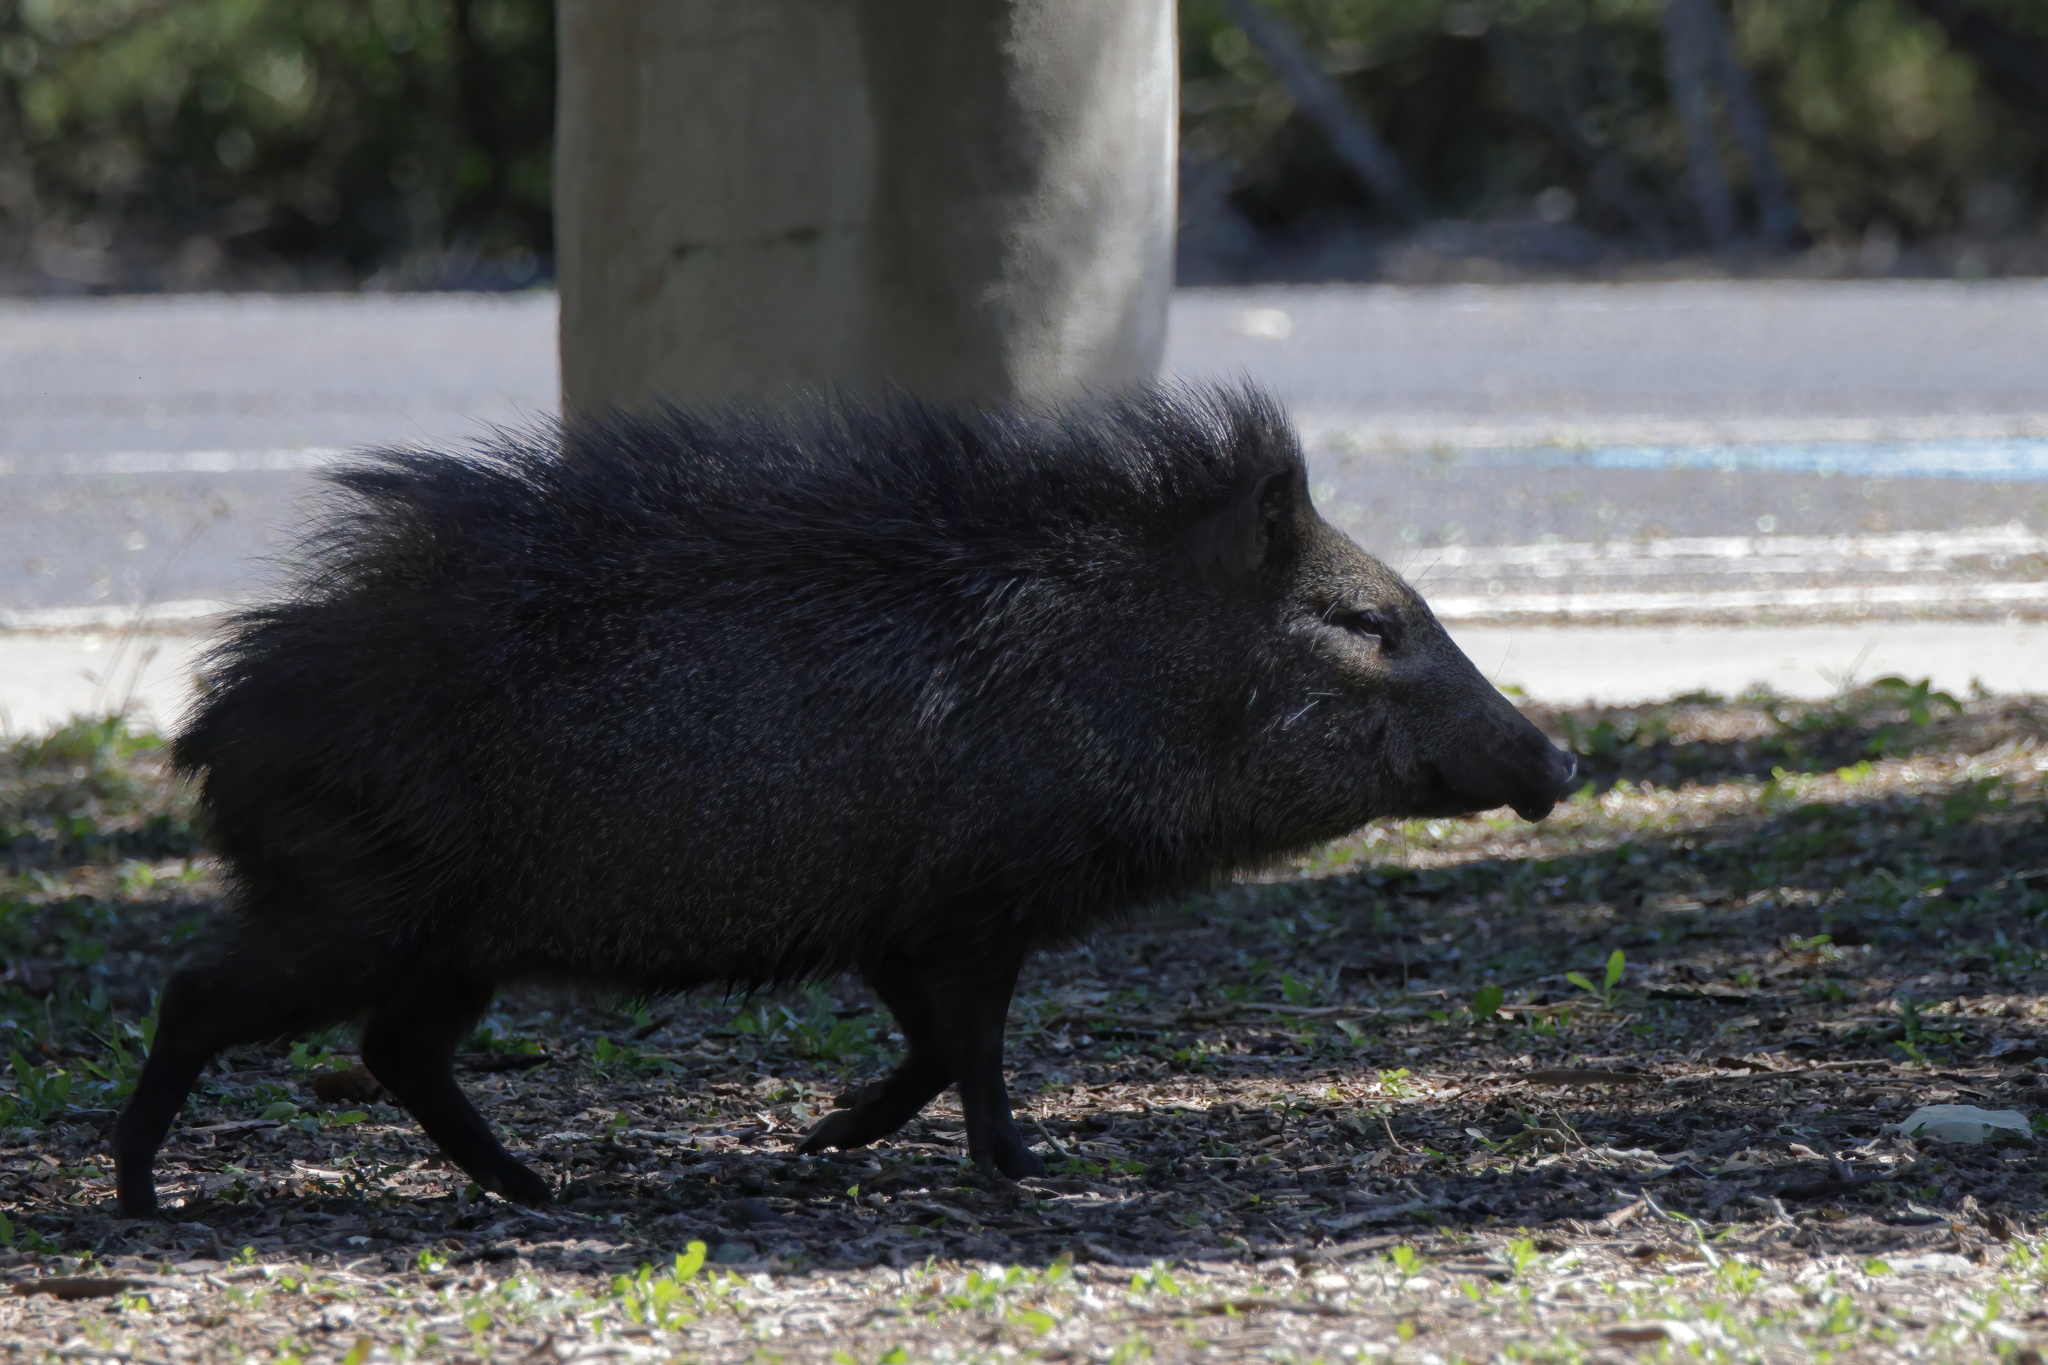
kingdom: Animalia
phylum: Chordata
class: Mammalia
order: Artiodactyla
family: Tayassuidae
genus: Pecari
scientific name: Pecari tajacu
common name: Collared peccary
